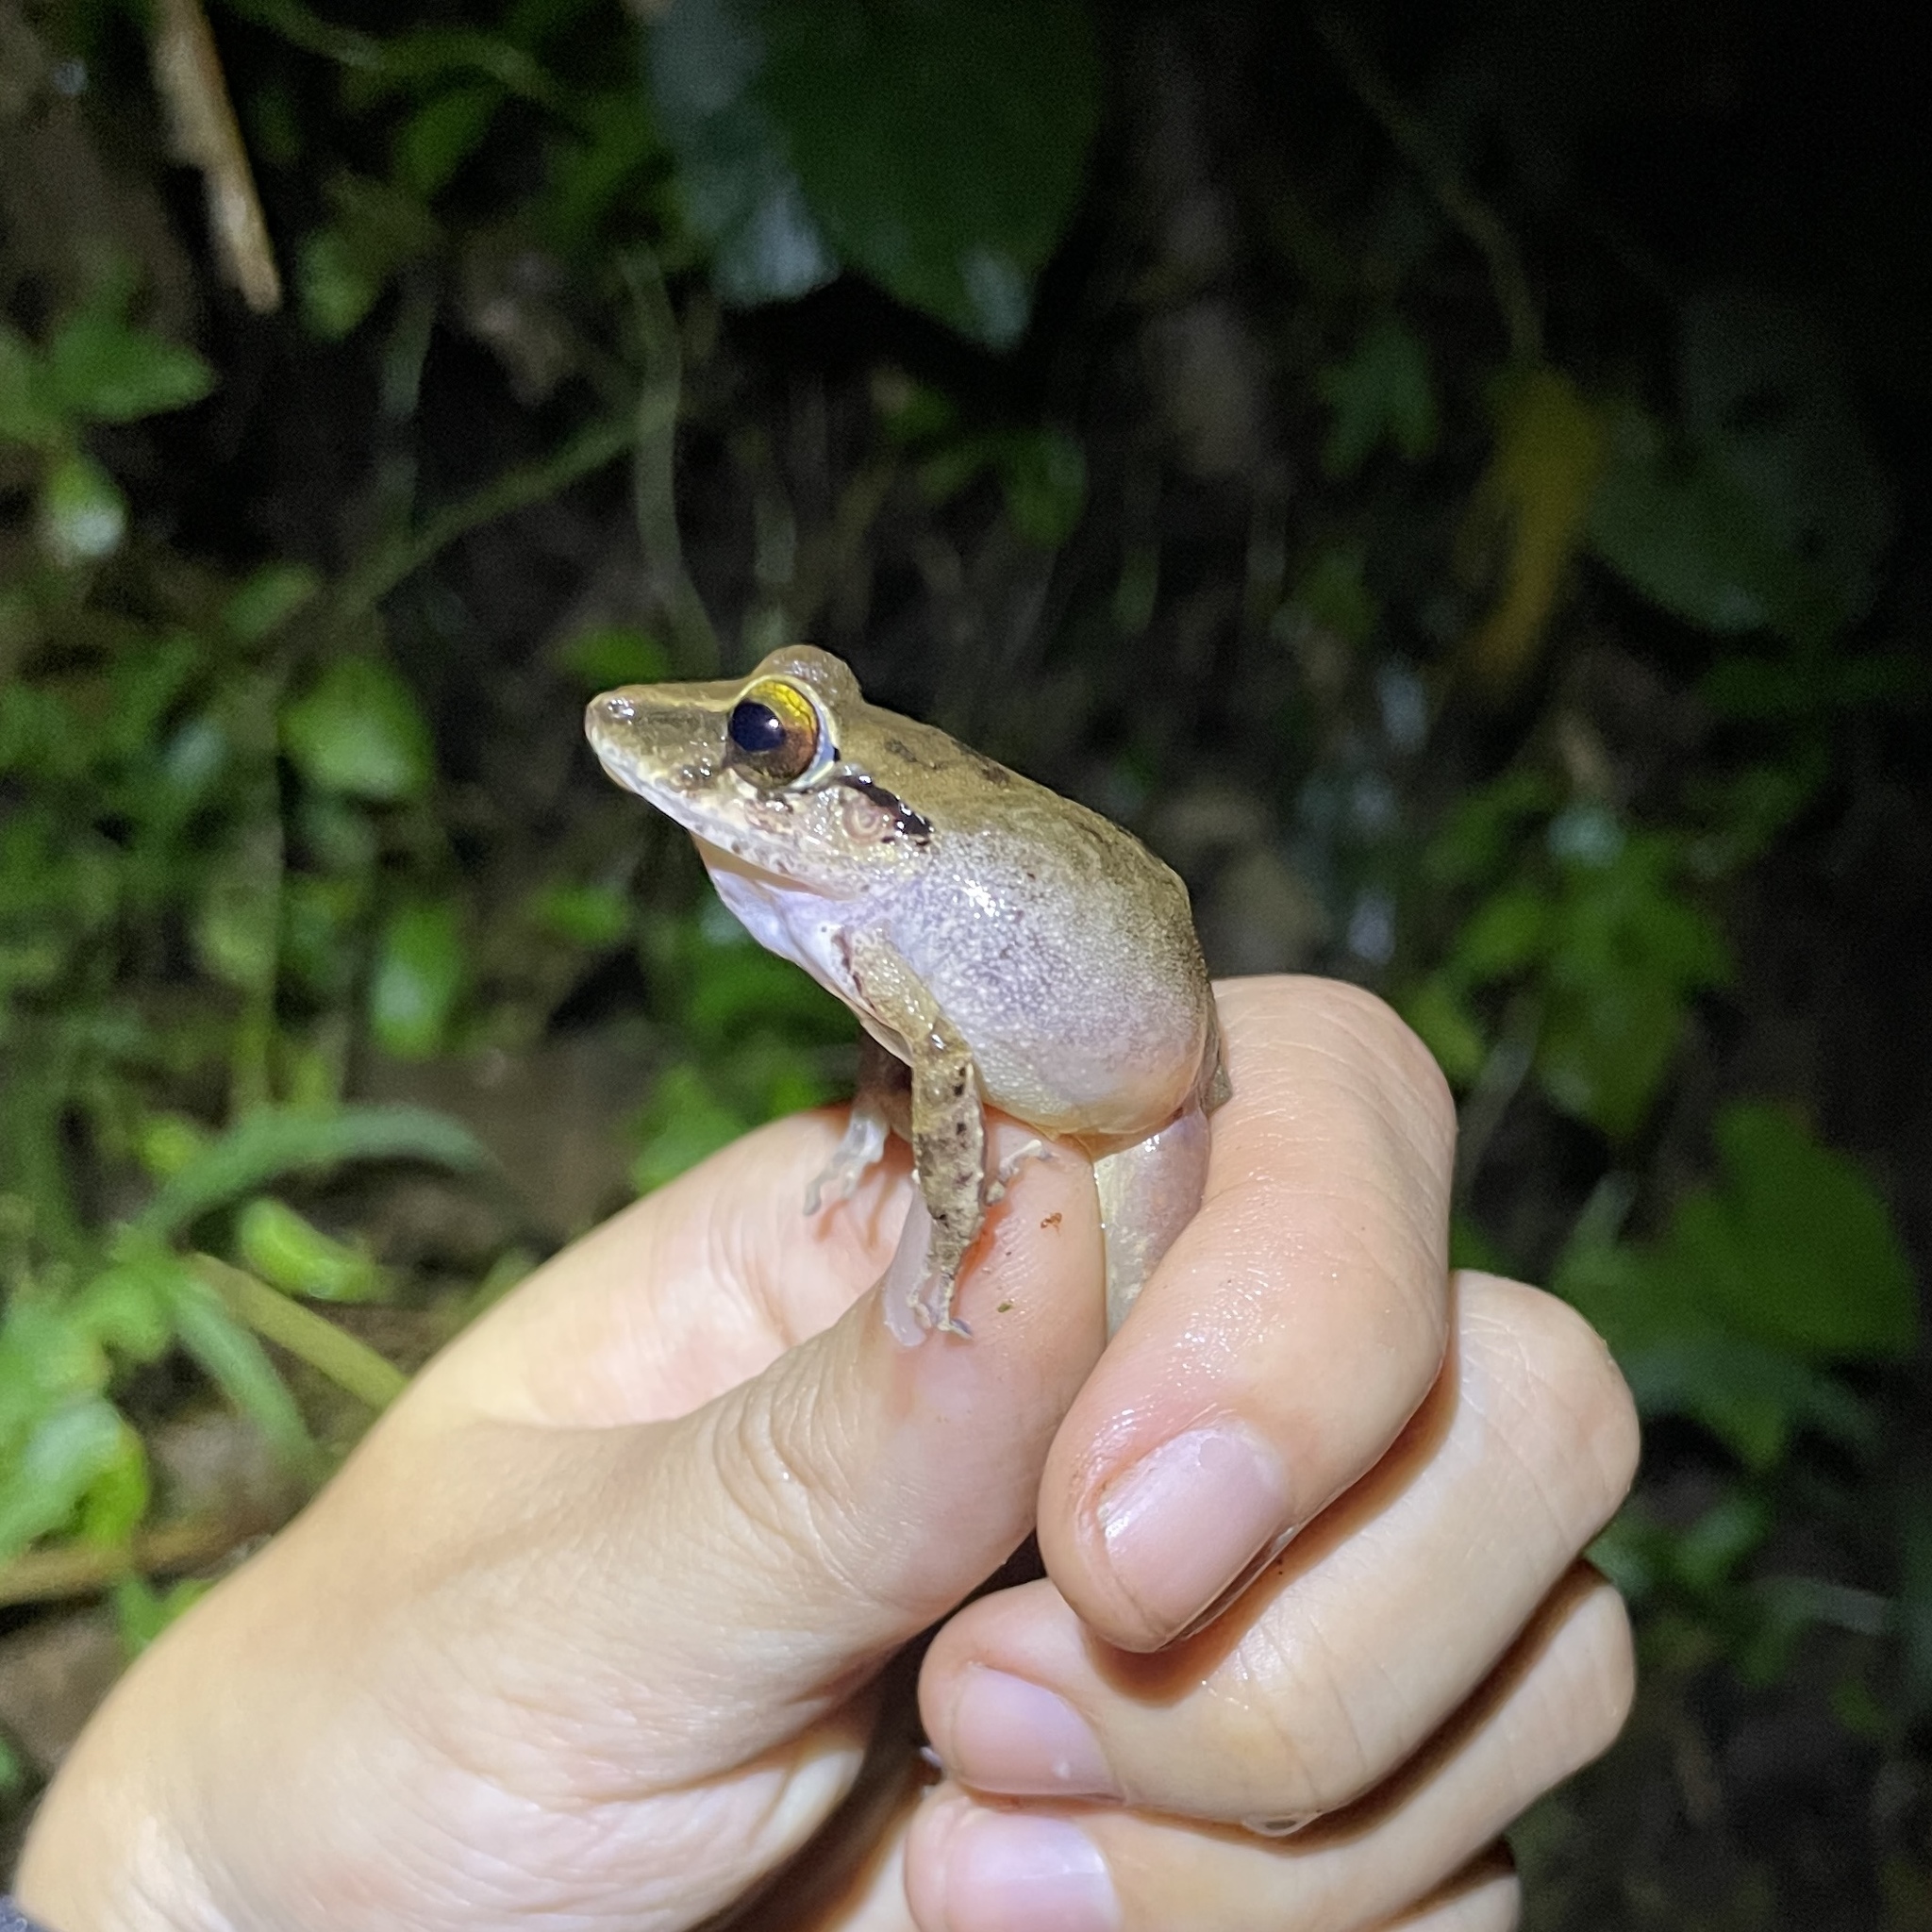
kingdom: Animalia
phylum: Chordata
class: Amphibia
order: Anura
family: Craugastoridae
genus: Pristimantis
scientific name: Pristimantis charlottevillensis
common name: Charlotteville leaf-litter frog
